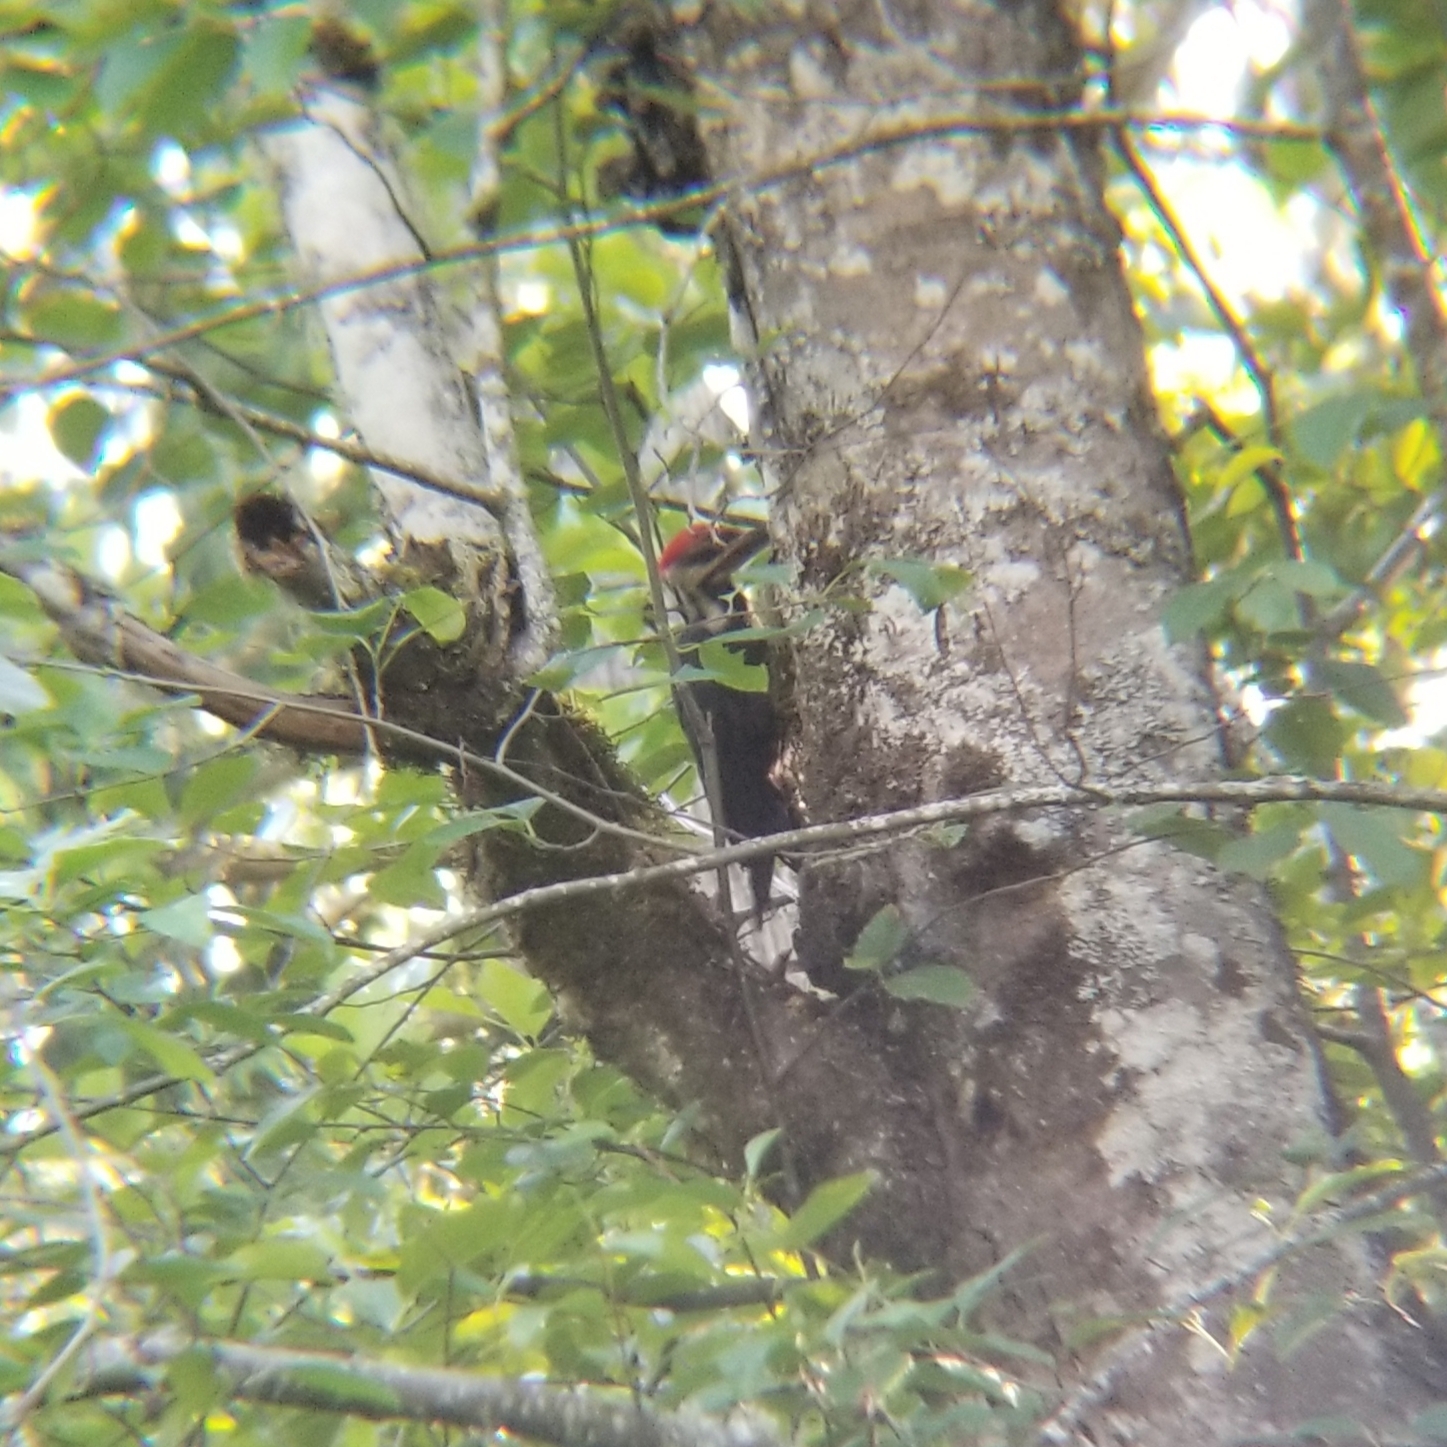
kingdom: Animalia
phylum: Chordata
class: Aves
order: Piciformes
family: Picidae
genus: Dryocopus
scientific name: Dryocopus pileatus
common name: Pileated woodpecker
